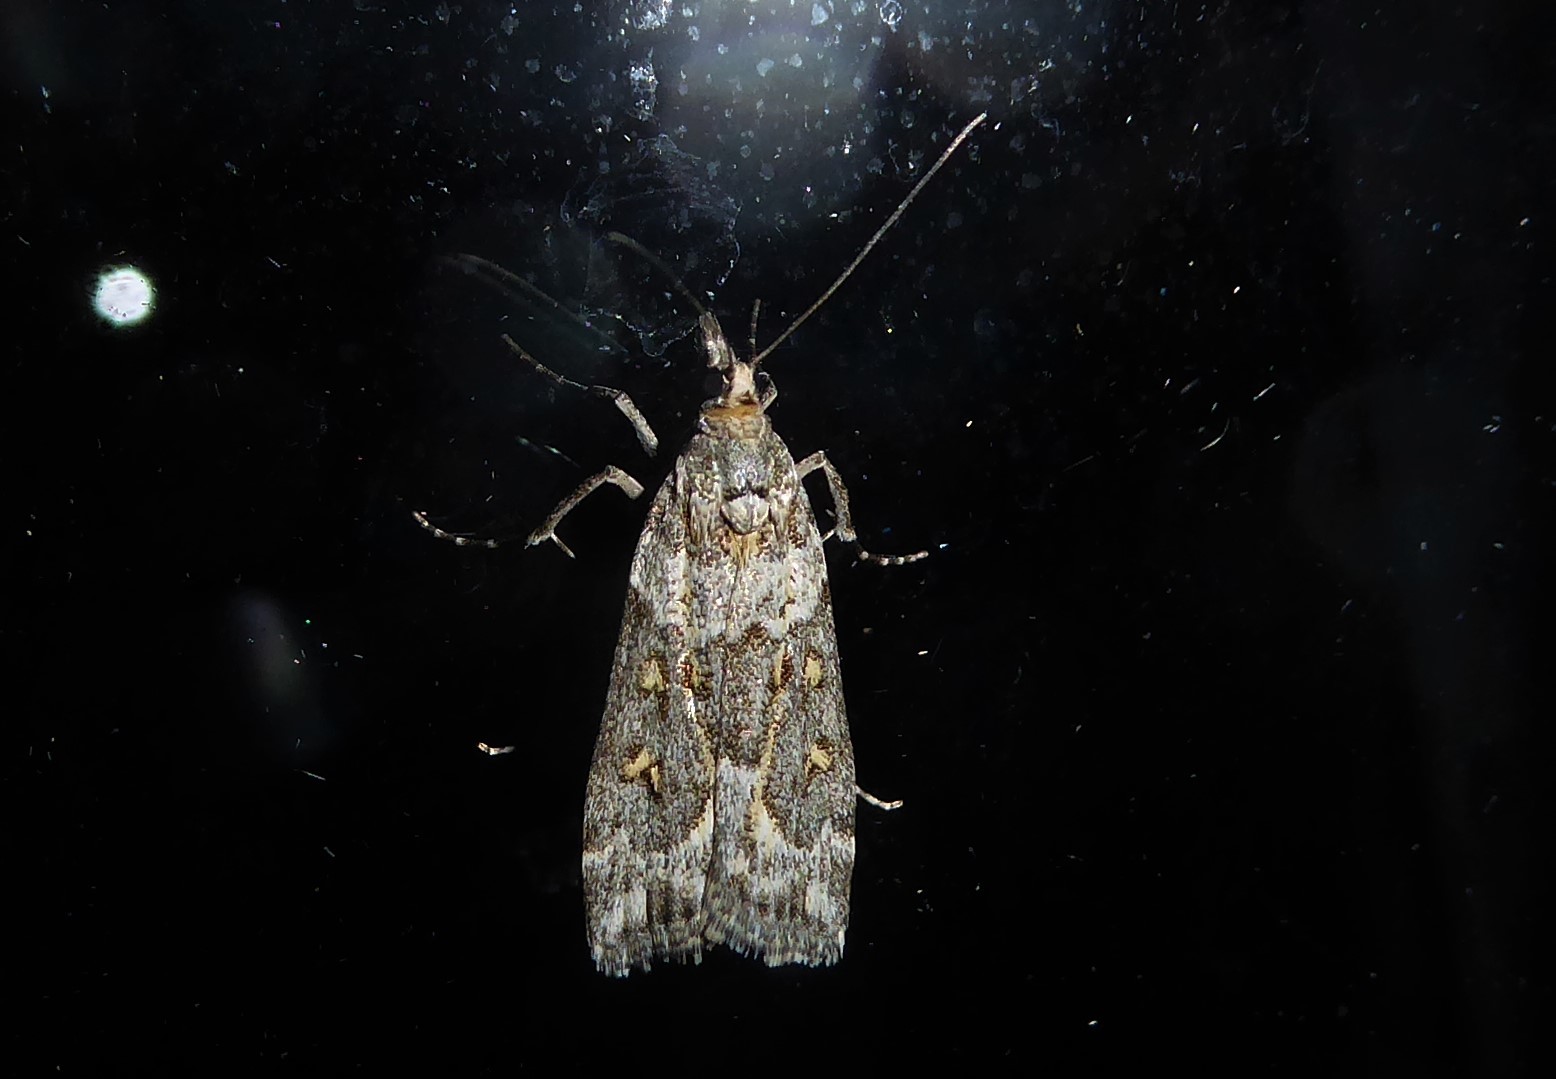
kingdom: Animalia
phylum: Arthropoda
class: Insecta
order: Lepidoptera
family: Crambidae
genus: Eudonia
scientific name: Eudonia diphtheralis
